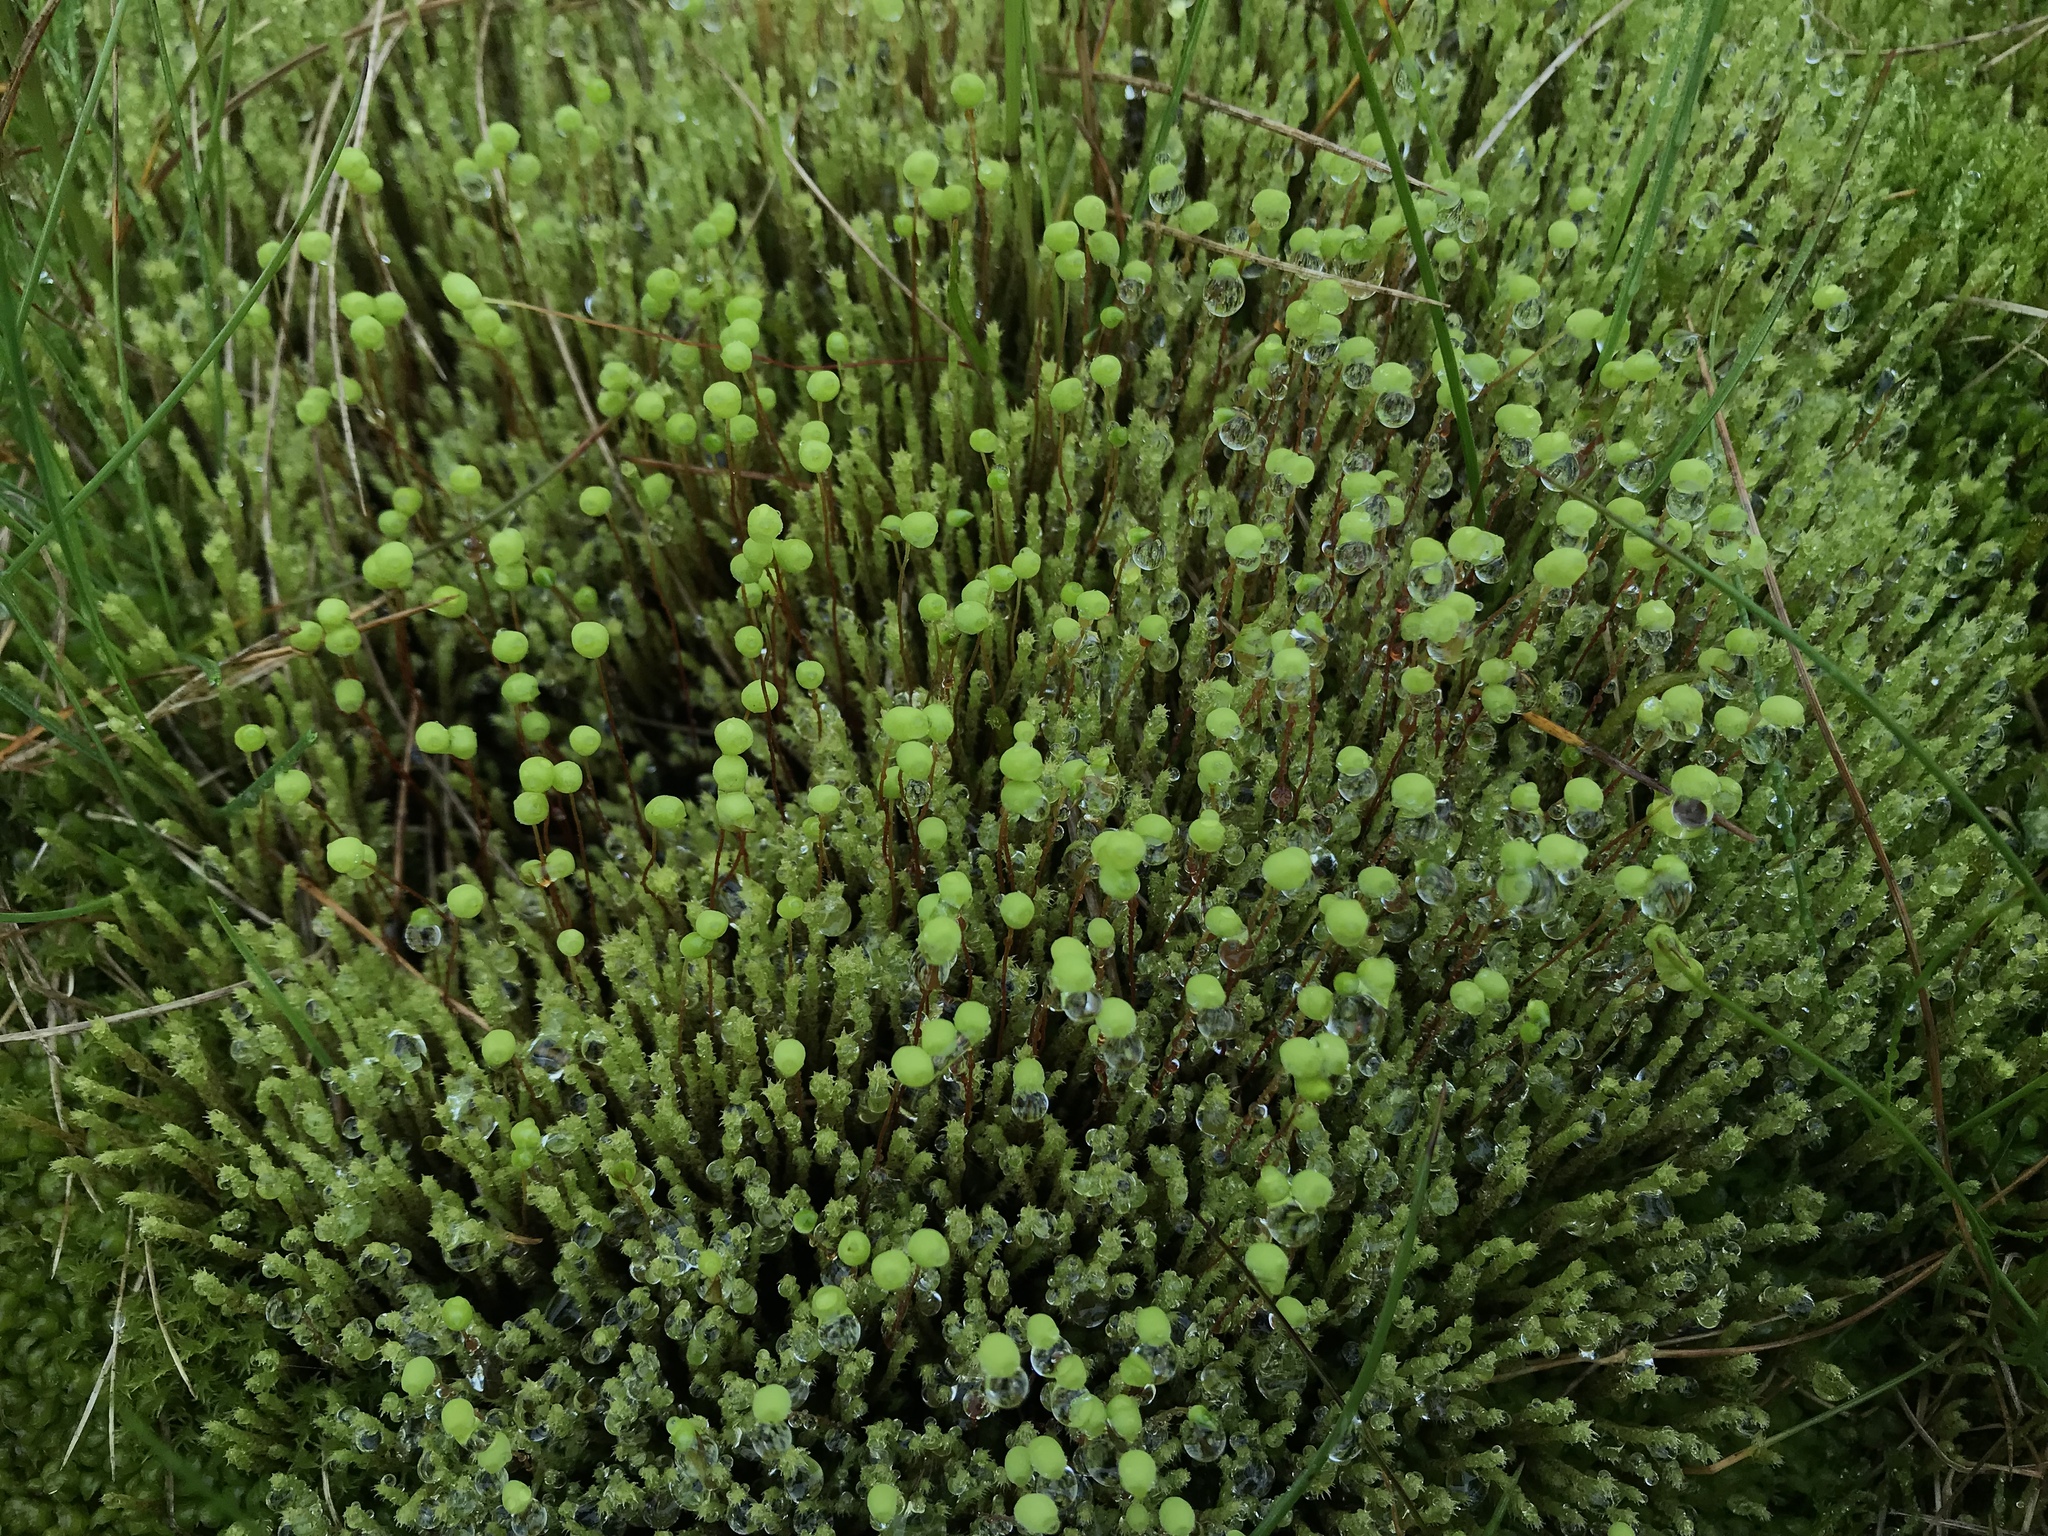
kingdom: Plantae
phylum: Bryophyta
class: Bryopsida
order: Bartramiales
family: Bartramiaceae
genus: Philonotis
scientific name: Philonotis fontana
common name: Fountain apple-moss
